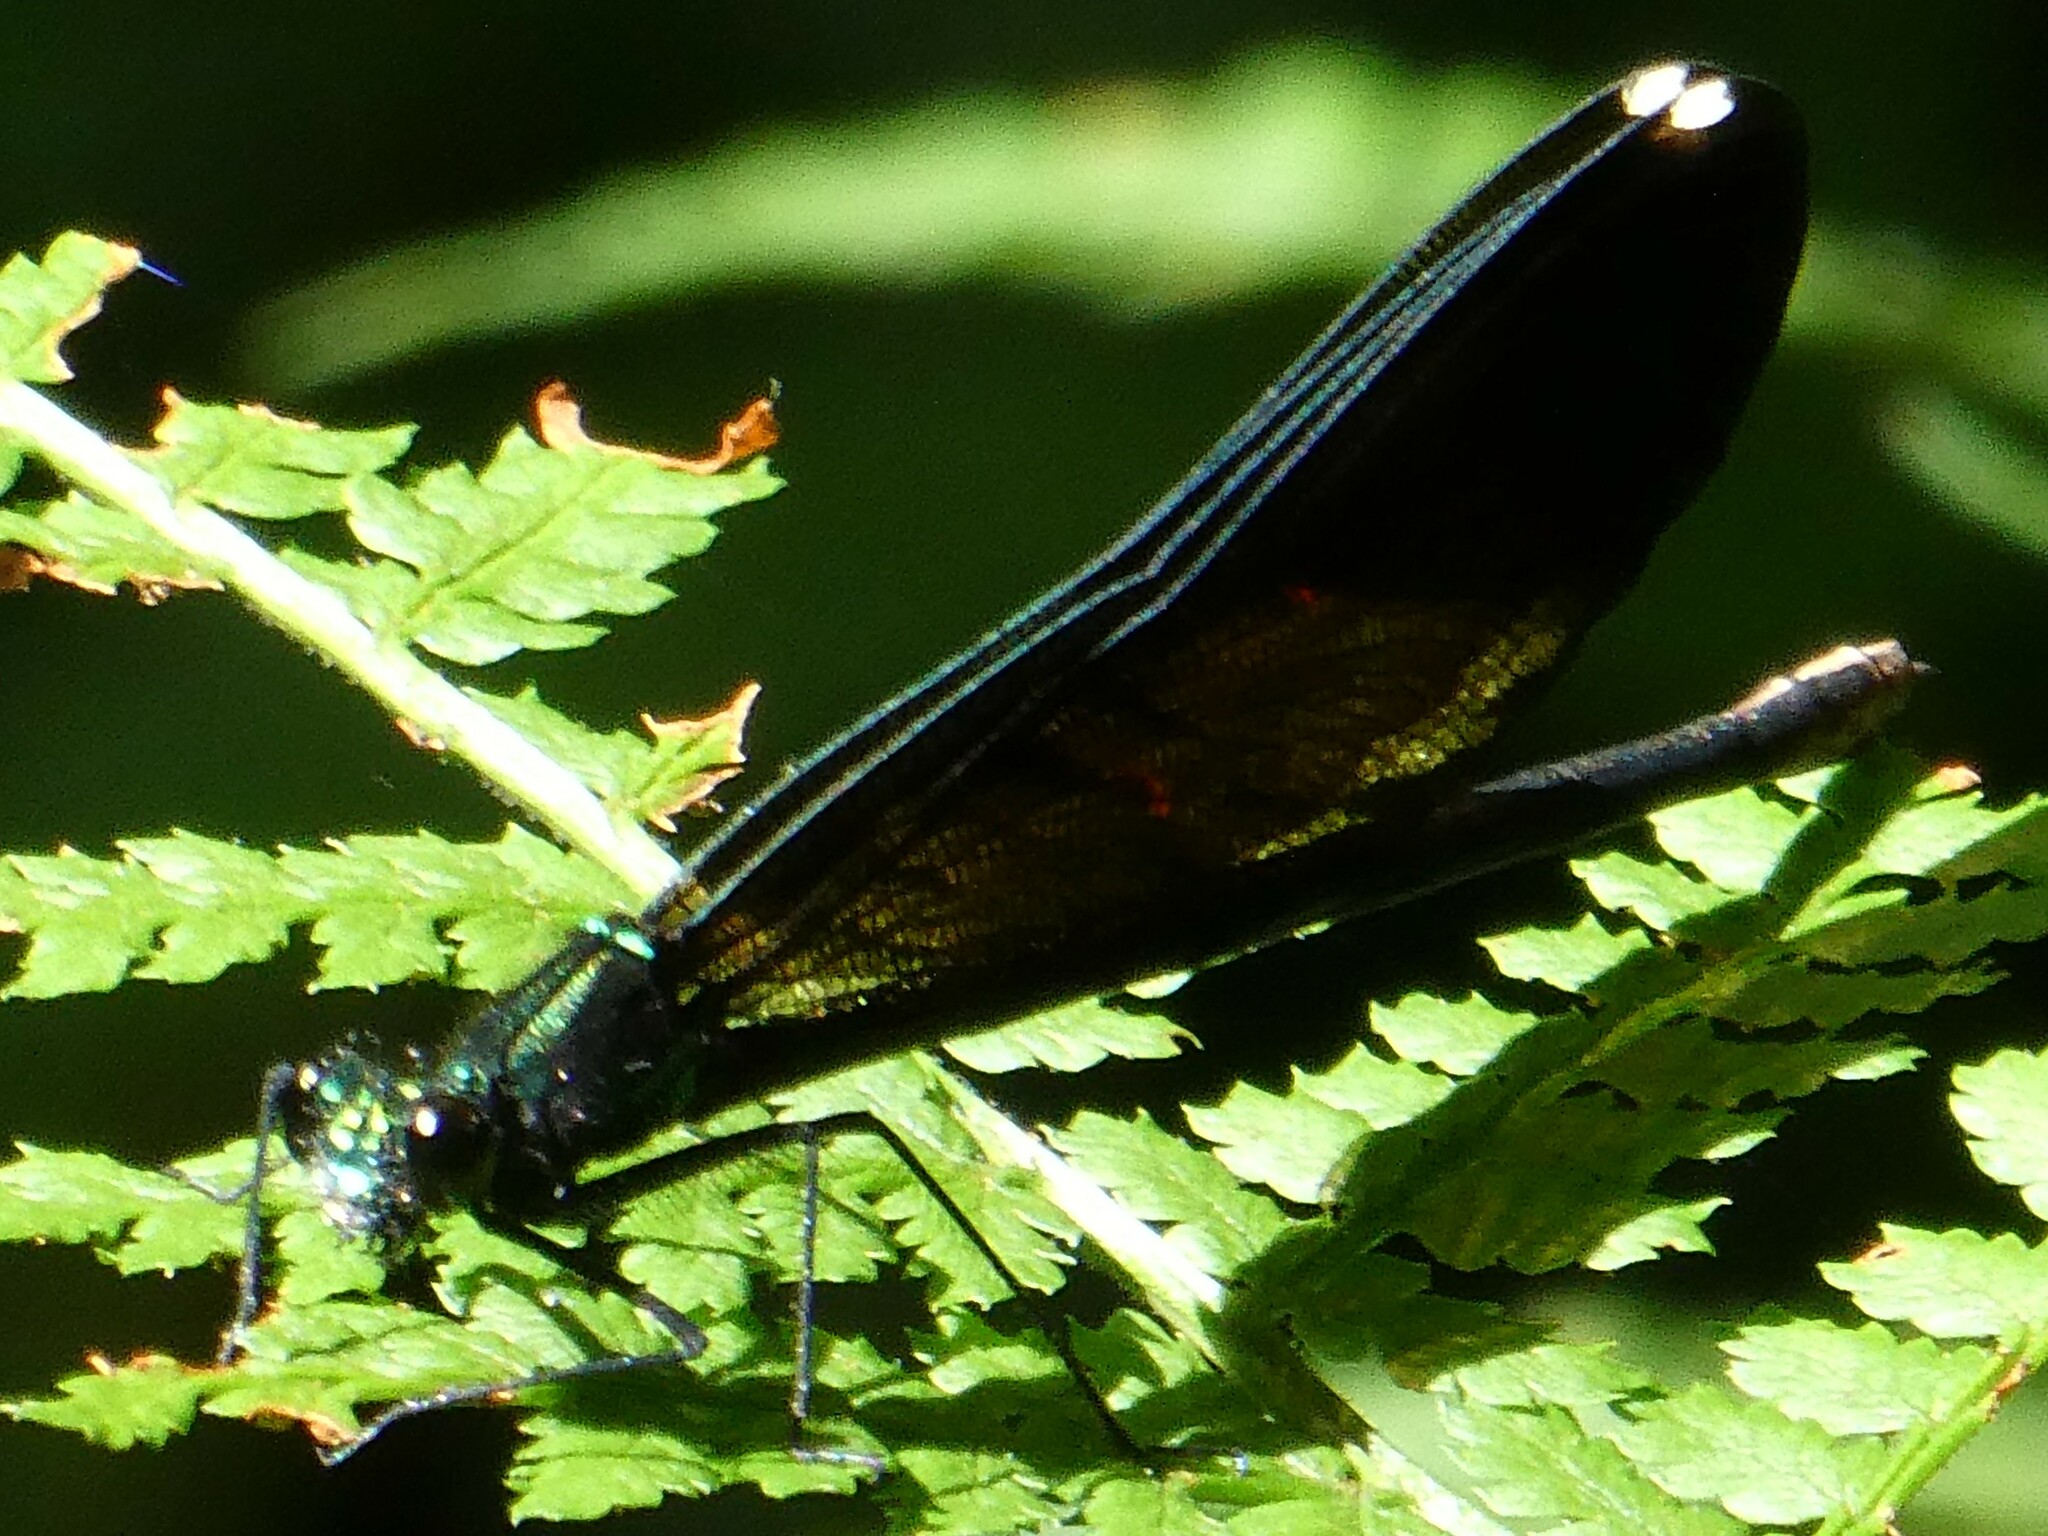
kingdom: Animalia
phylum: Arthropoda
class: Insecta
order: Odonata
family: Calopterygidae
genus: Calopteryx
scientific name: Calopteryx maculata
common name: Ebony jewelwing
